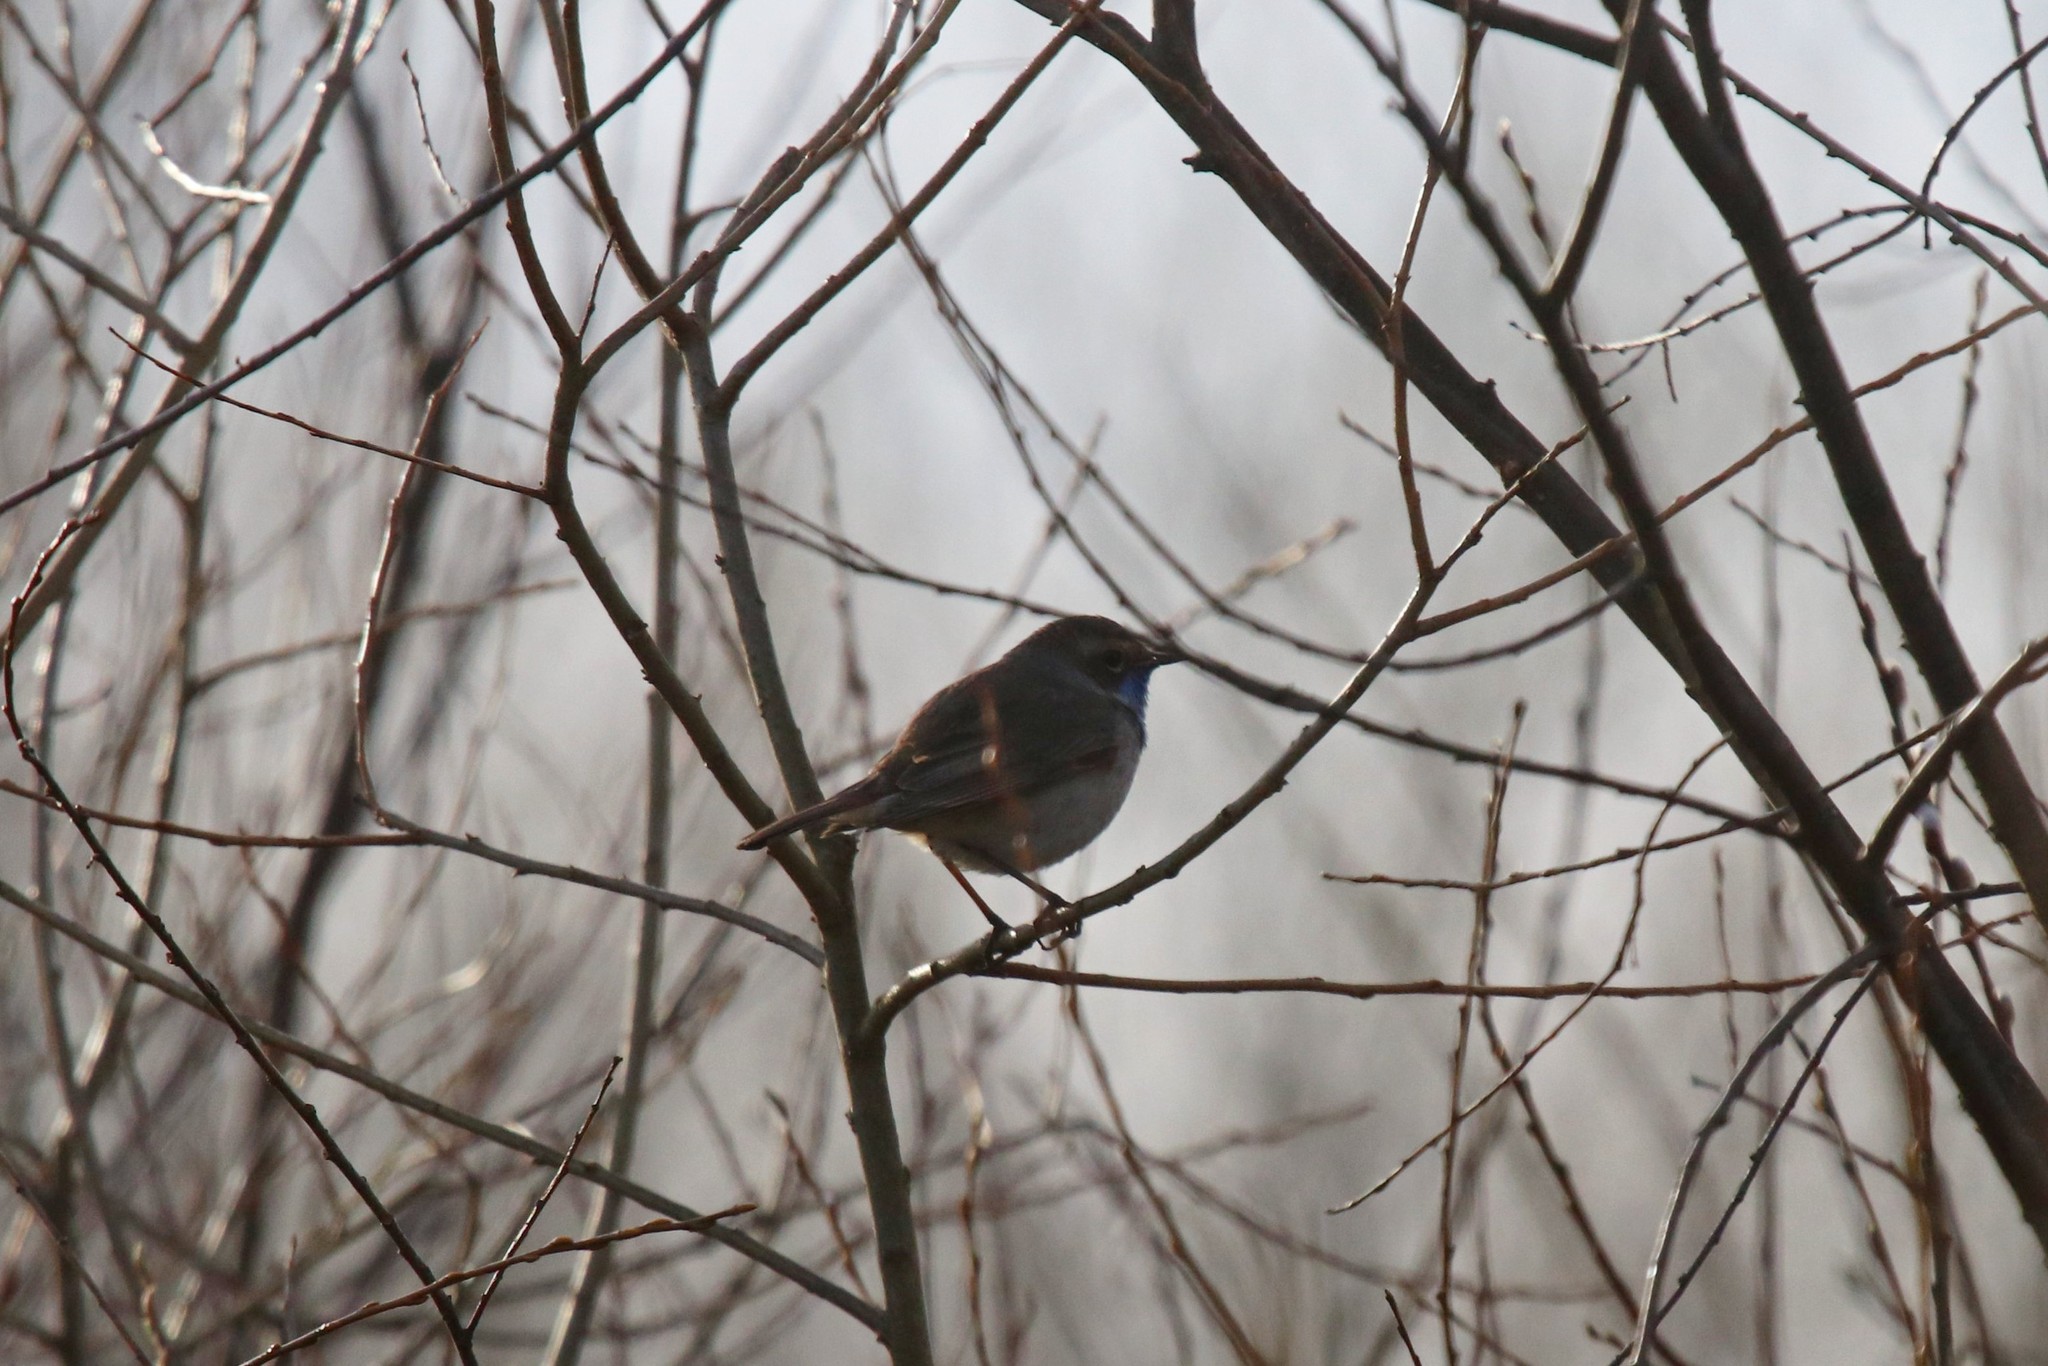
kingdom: Animalia
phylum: Chordata
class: Aves
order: Passeriformes
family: Muscicapidae
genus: Luscinia
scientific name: Luscinia svecica
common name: Bluethroat
